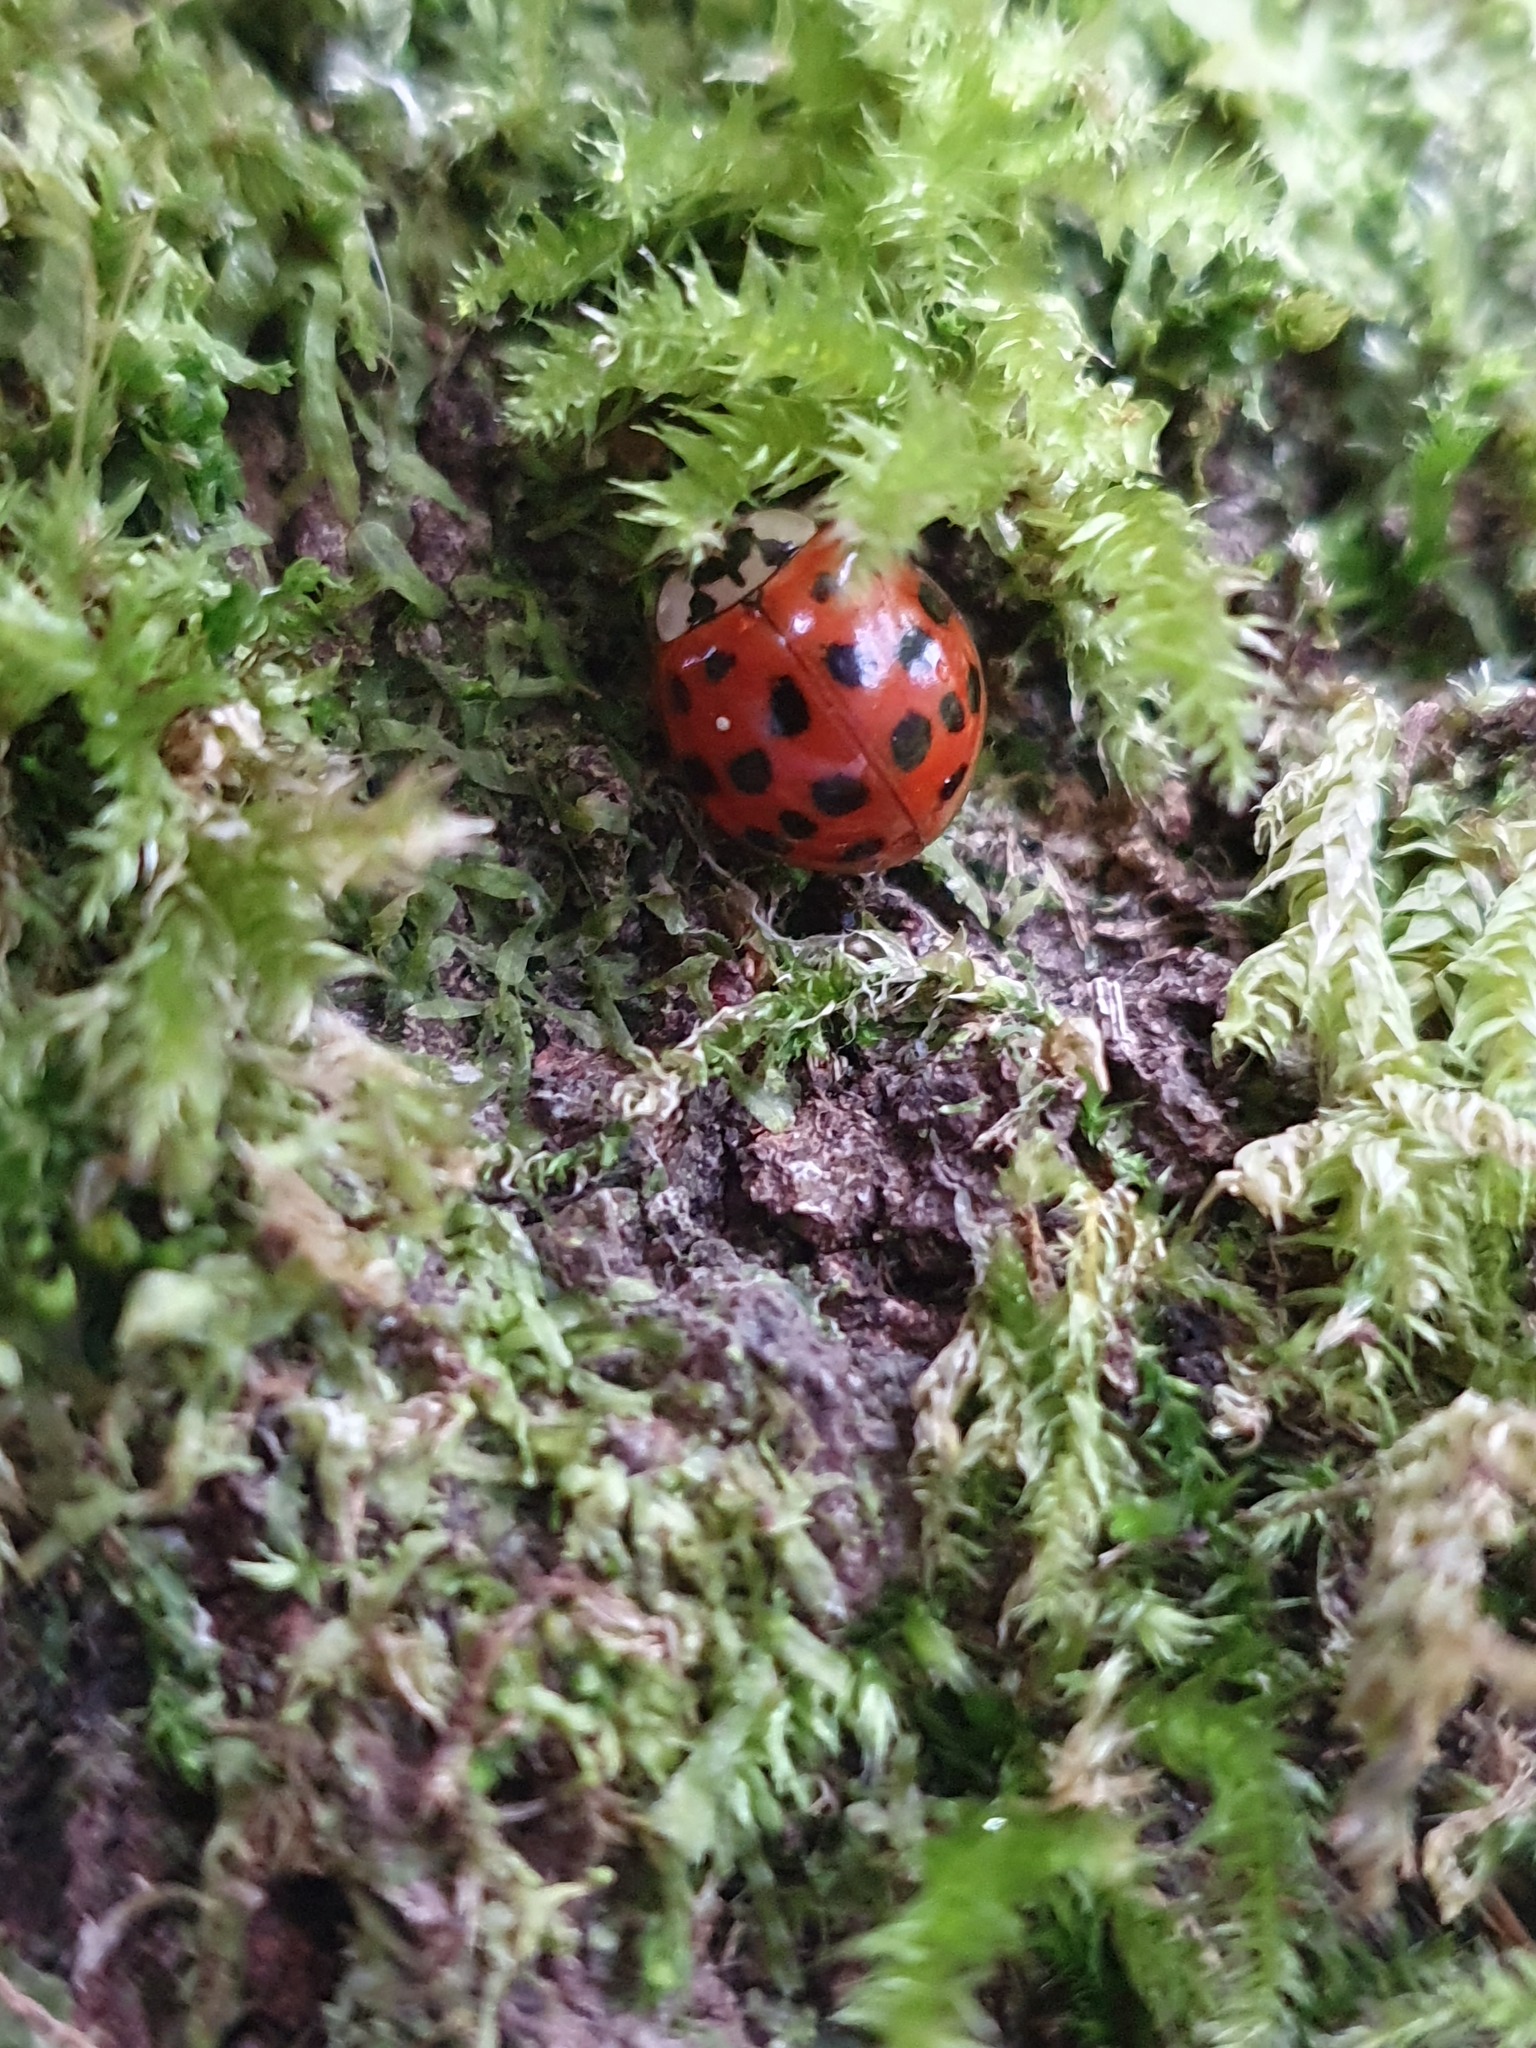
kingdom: Animalia
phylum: Arthropoda
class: Insecta
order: Coleoptera
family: Coccinellidae
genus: Harmonia
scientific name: Harmonia axyridis
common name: Harlequin ladybird
